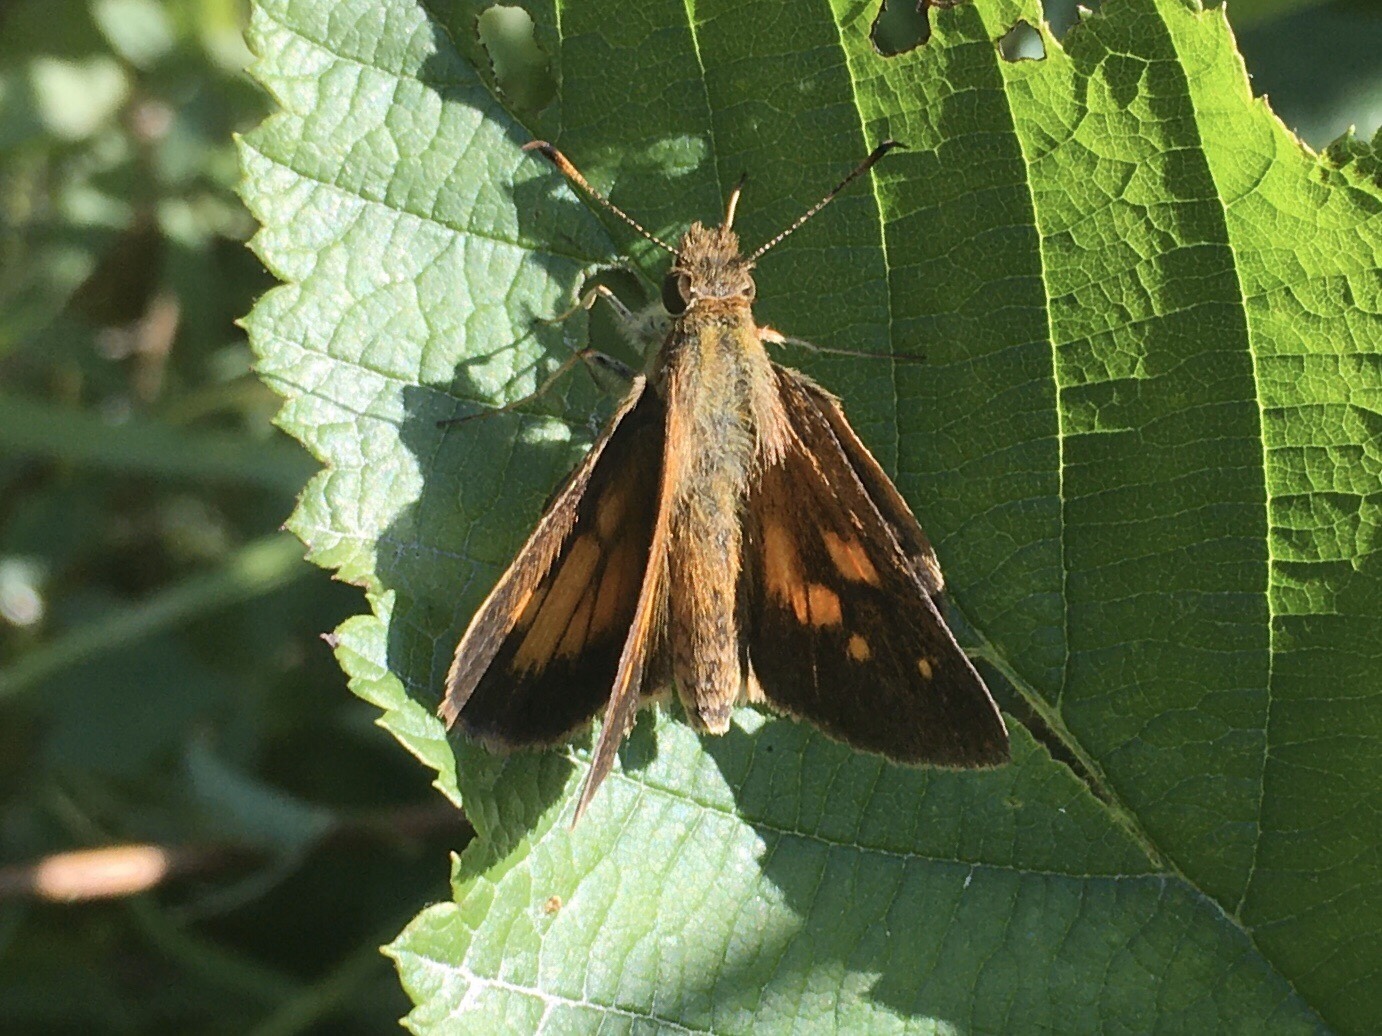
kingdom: Animalia
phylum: Arthropoda
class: Insecta
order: Lepidoptera
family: Hesperiidae
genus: Poanes
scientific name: Poanes viator
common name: Broad-winged skipper
